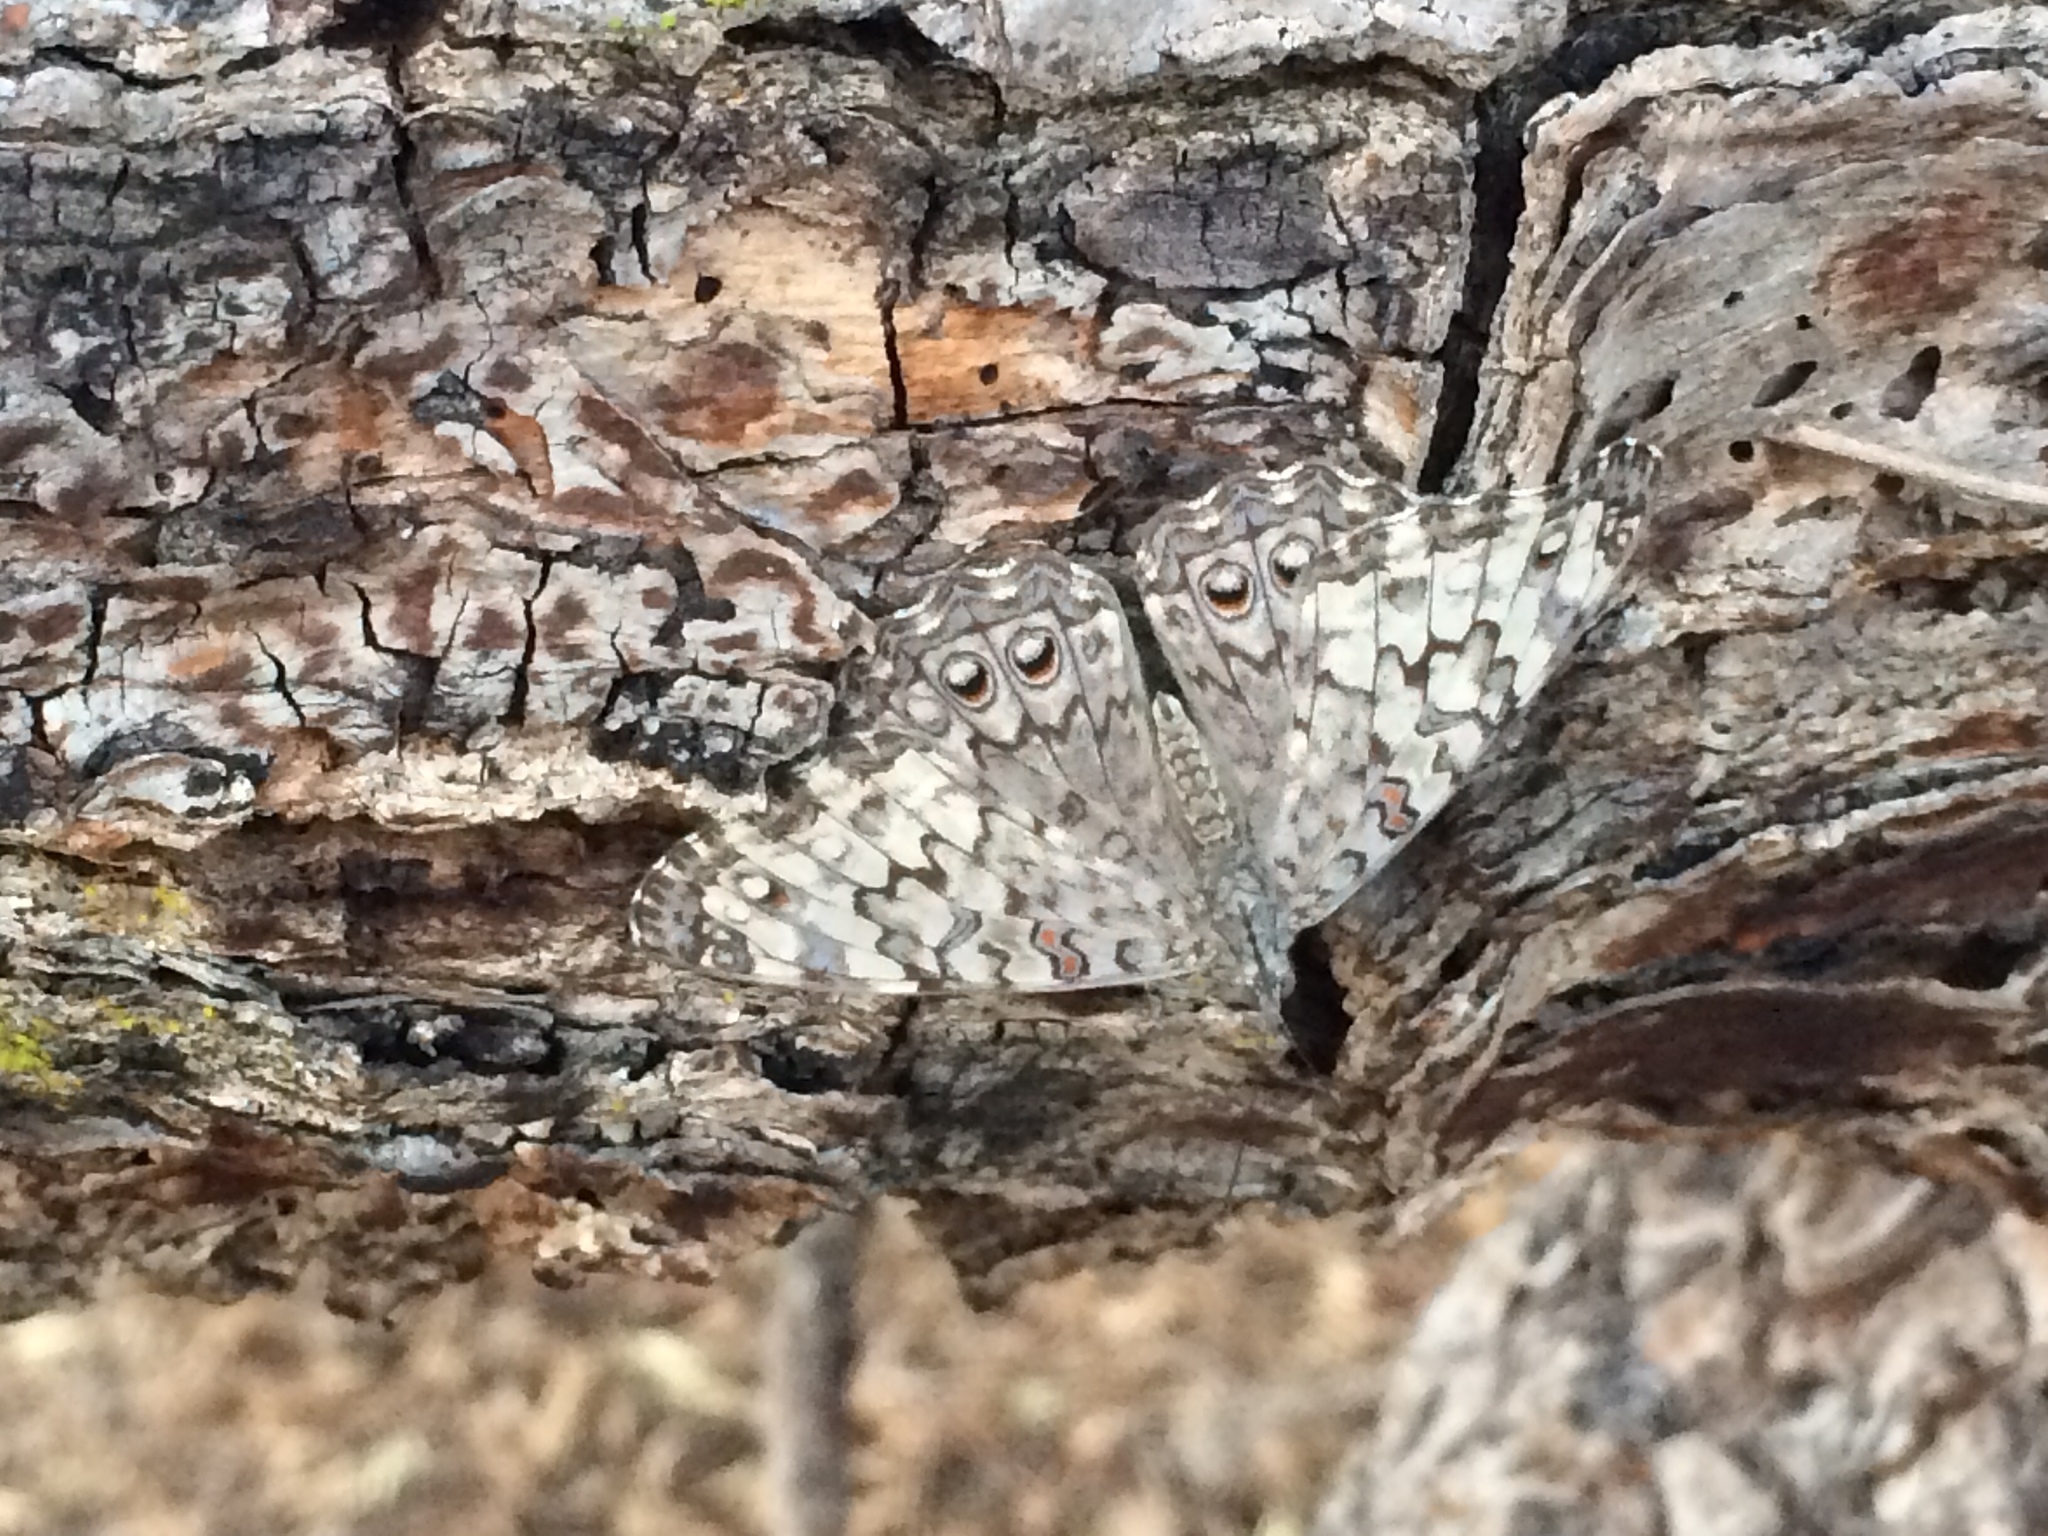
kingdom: Animalia
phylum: Arthropoda
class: Insecta
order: Lepidoptera
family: Nymphalidae
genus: Hamadryas
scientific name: Hamadryas februa
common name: Gray cracker
